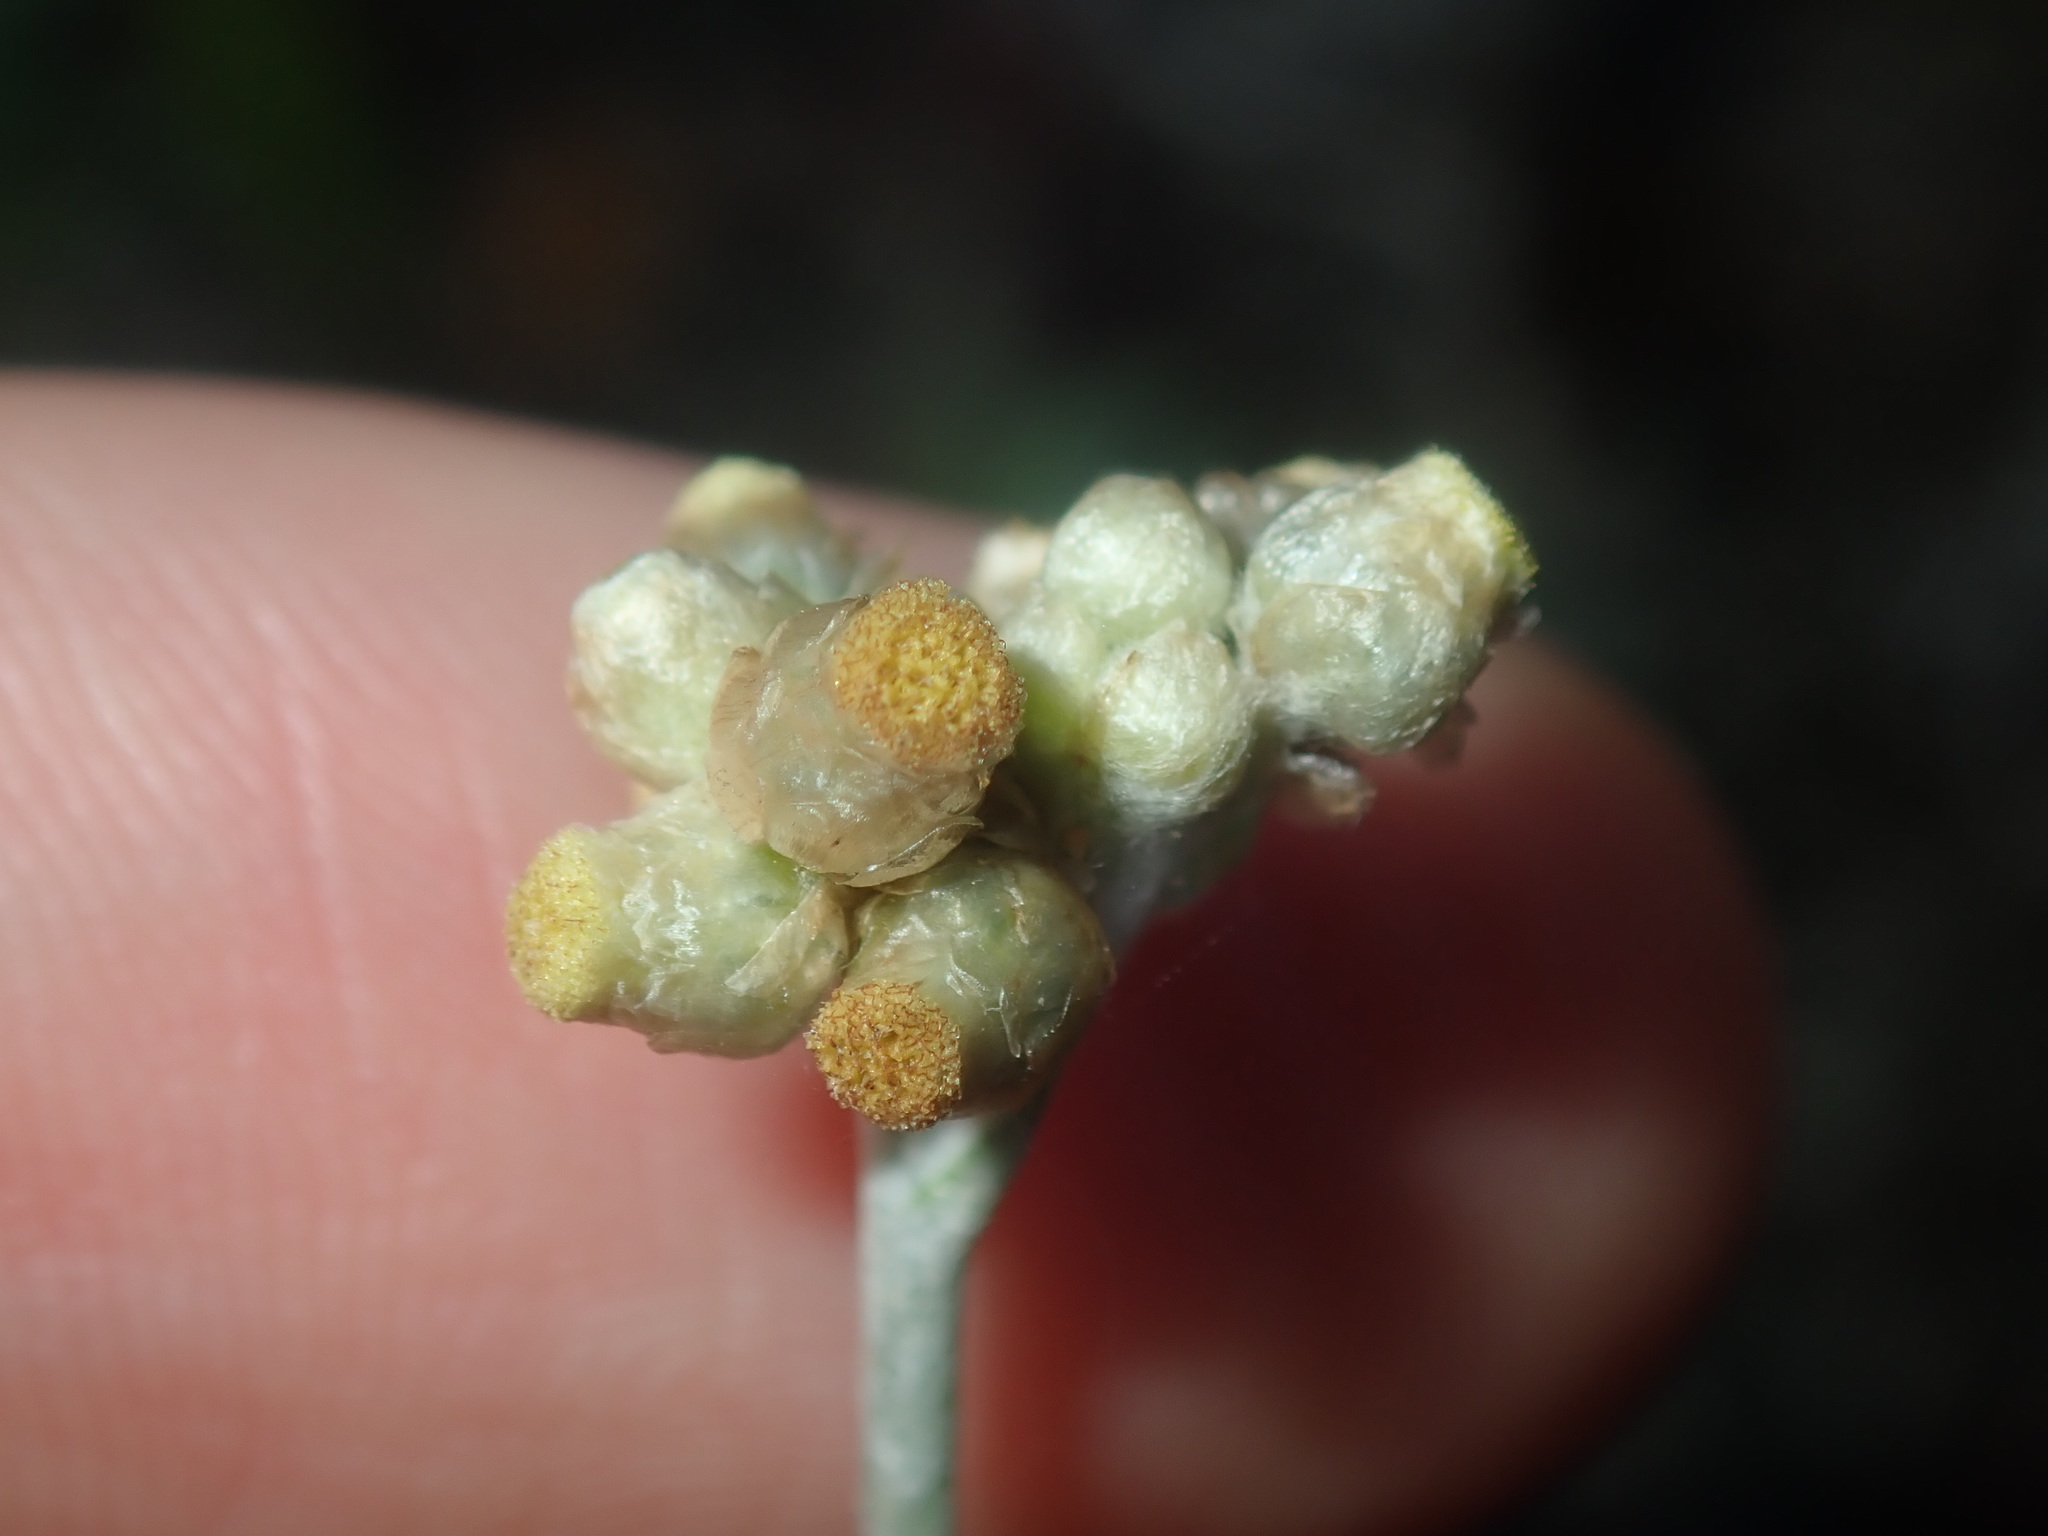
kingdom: Plantae
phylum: Tracheophyta
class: Magnoliopsida
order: Asterales
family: Asteraceae
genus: Helichrysum
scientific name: Helichrysum luteoalbum
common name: Daisy
